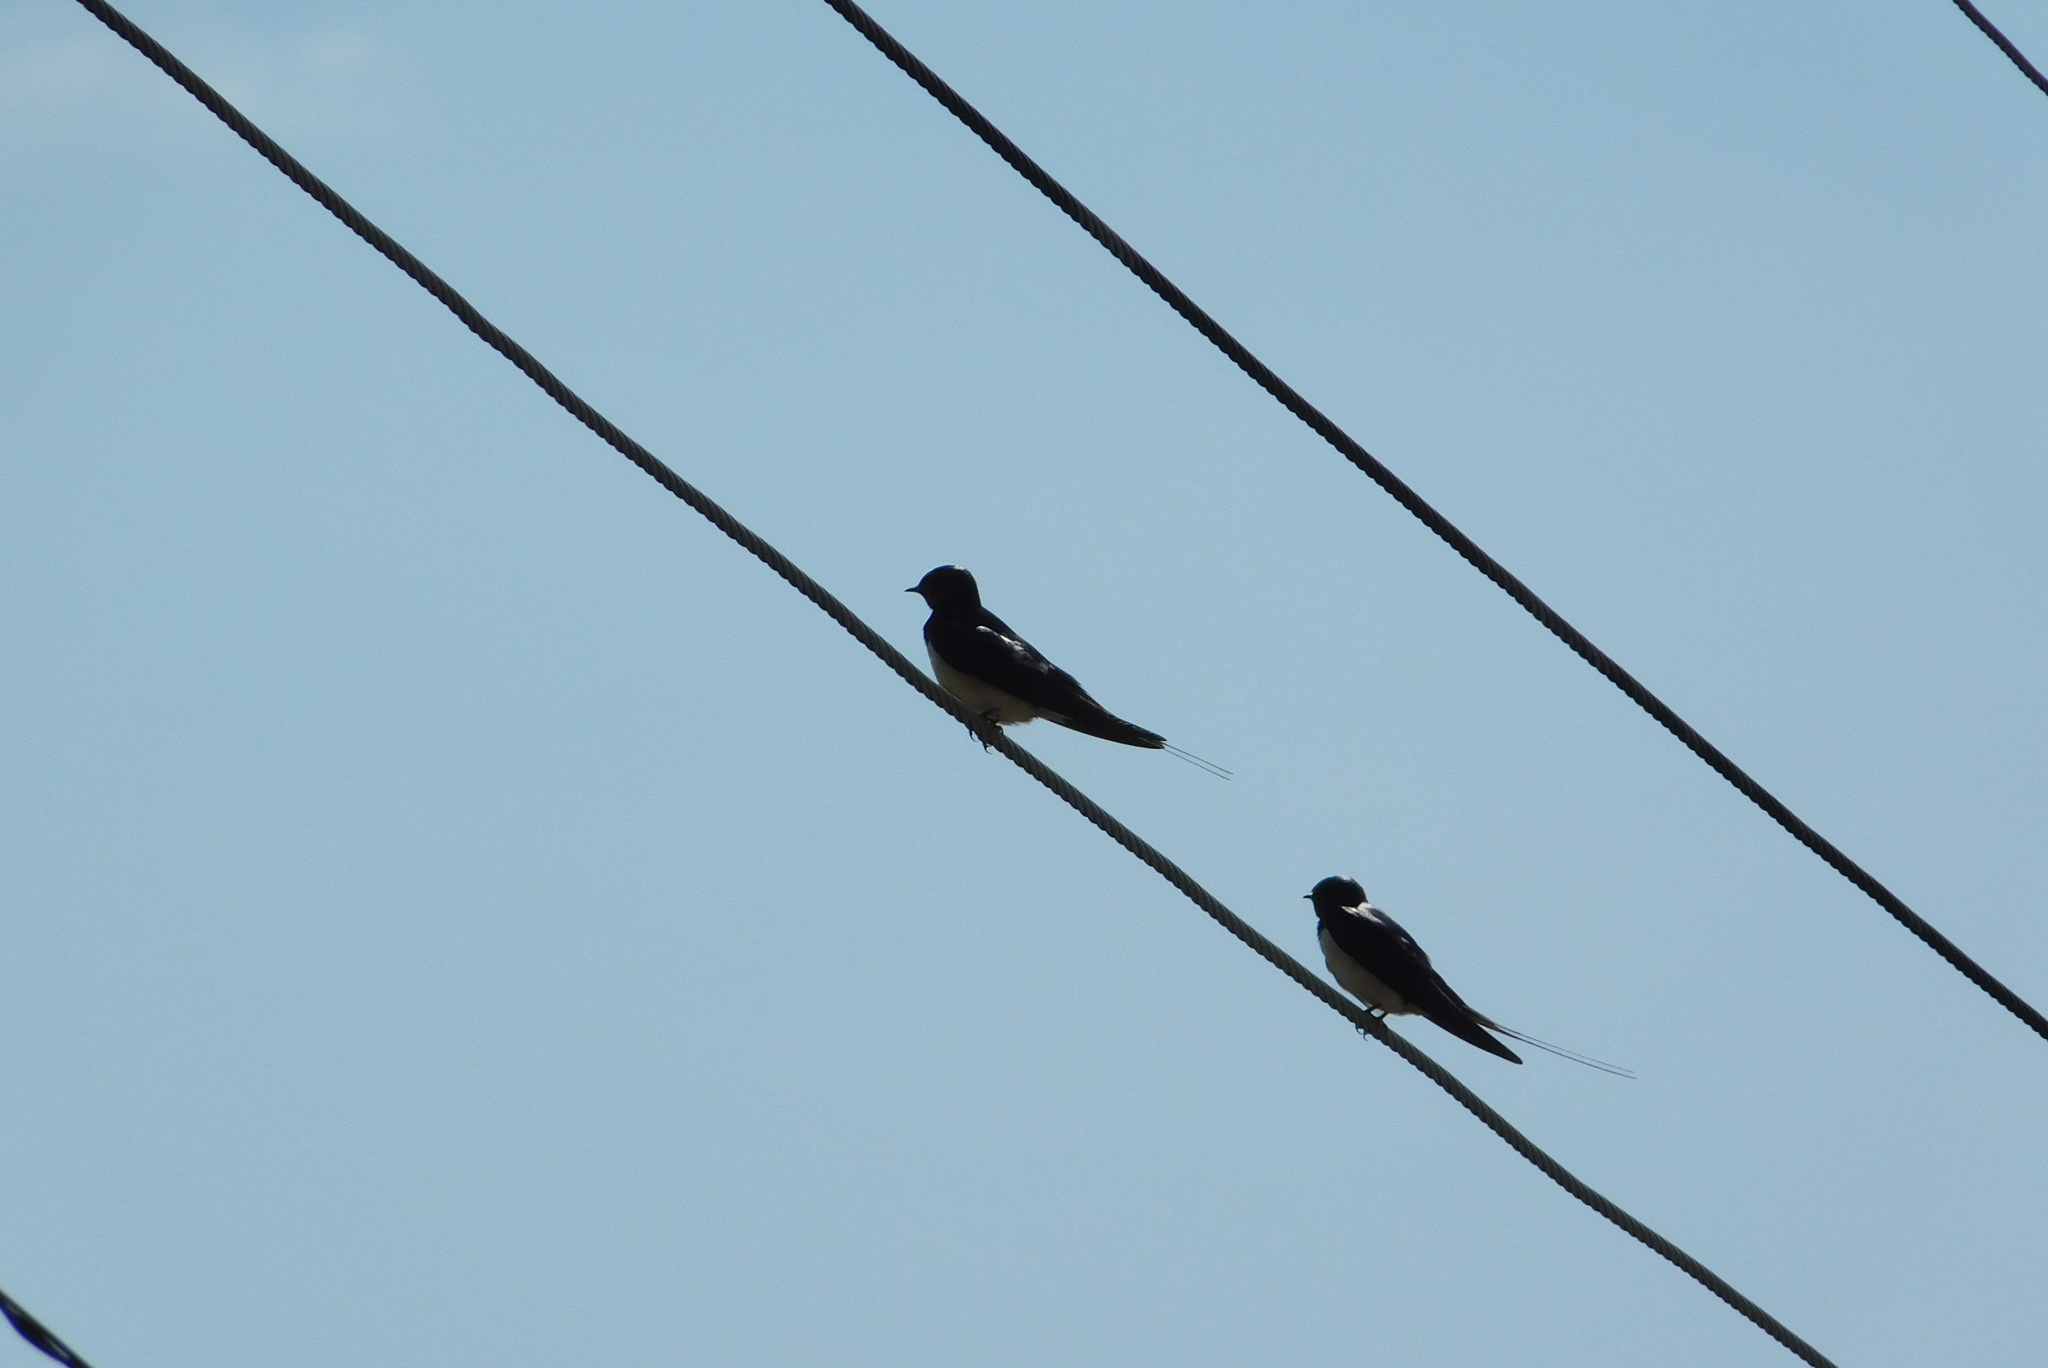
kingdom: Animalia
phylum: Chordata
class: Aves
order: Passeriformes
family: Hirundinidae
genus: Hirundo
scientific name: Hirundo rustica
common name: Barn swallow
